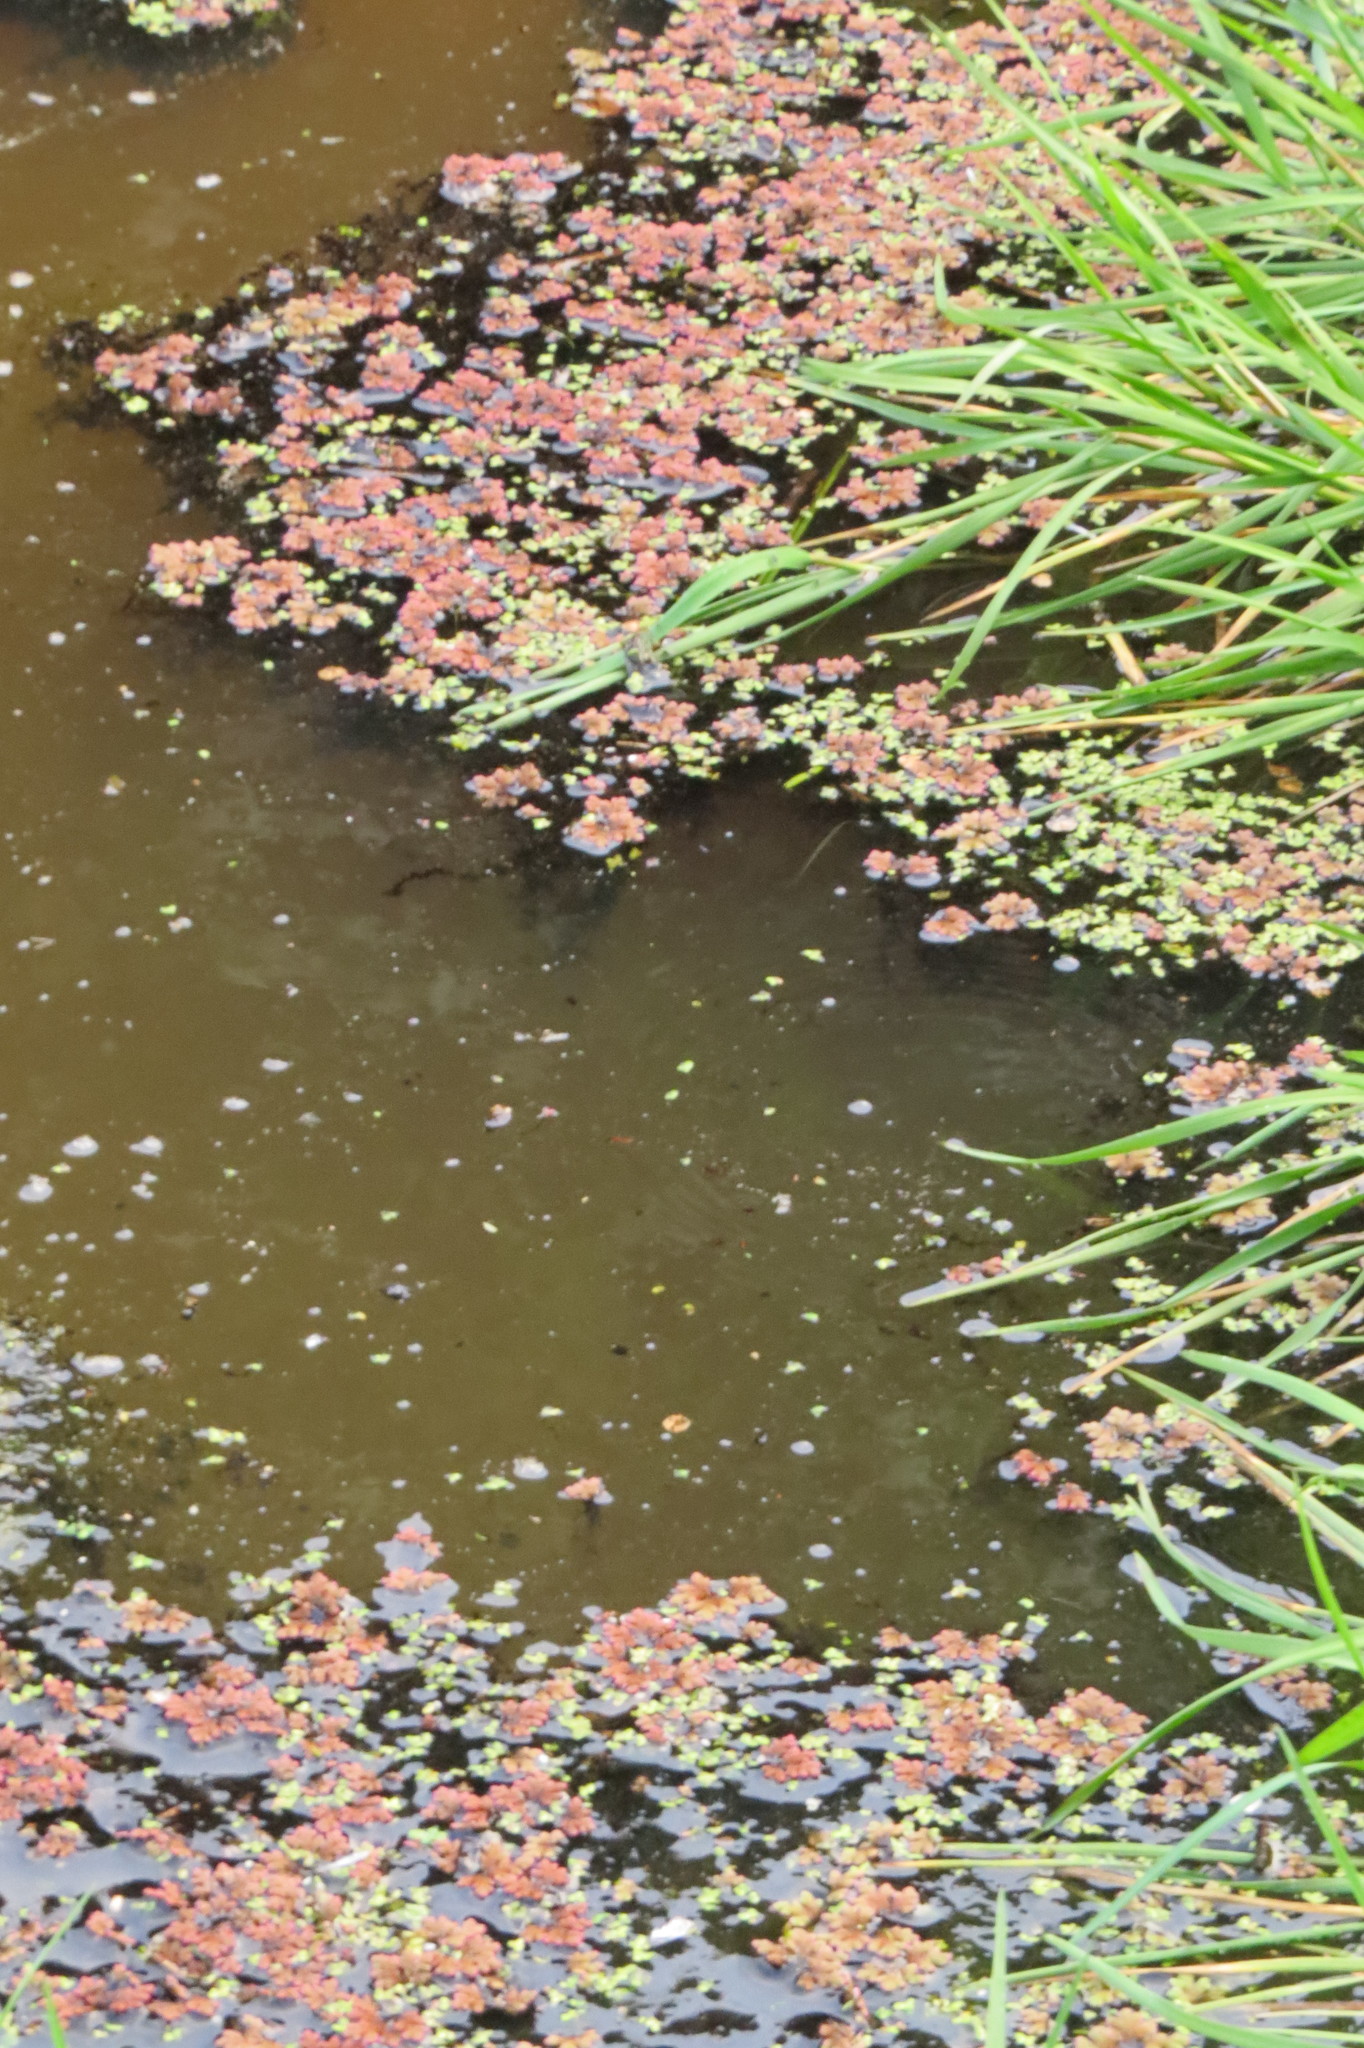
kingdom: Plantae
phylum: Tracheophyta
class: Polypodiopsida
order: Salviniales
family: Salviniaceae
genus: Azolla
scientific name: Azolla rubra
